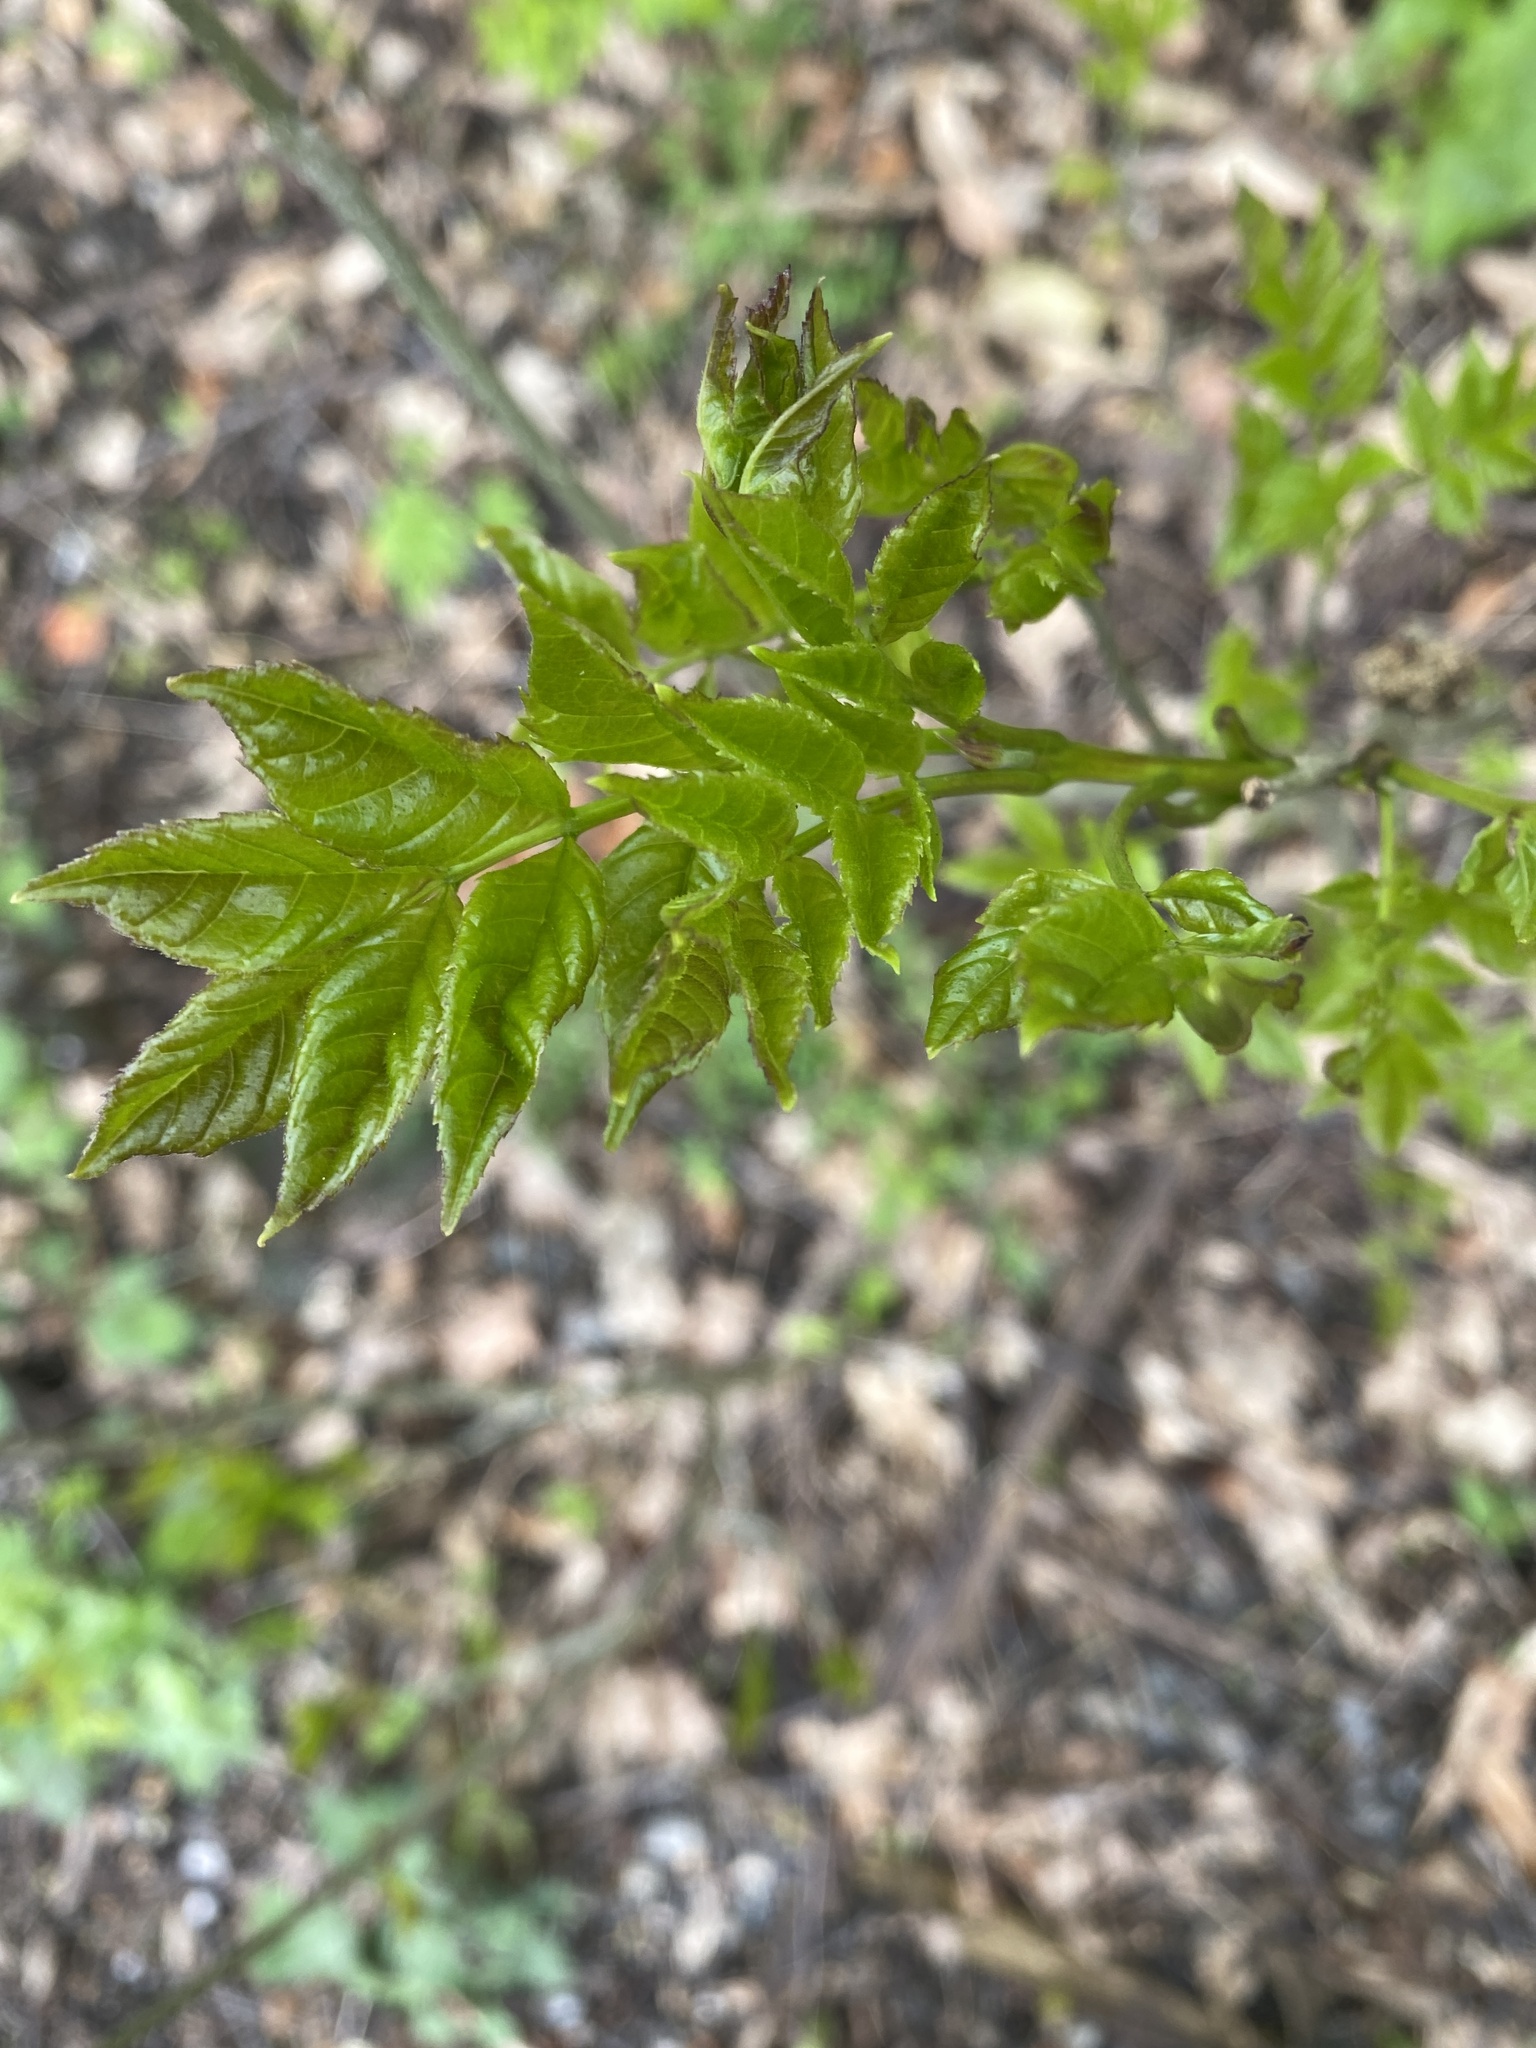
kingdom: Plantae
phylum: Tracheophyta
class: Magnoliopsida
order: Lamiales
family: Oleaceae
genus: Fraxinus
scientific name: Fraxinus excelsior
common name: European ash
